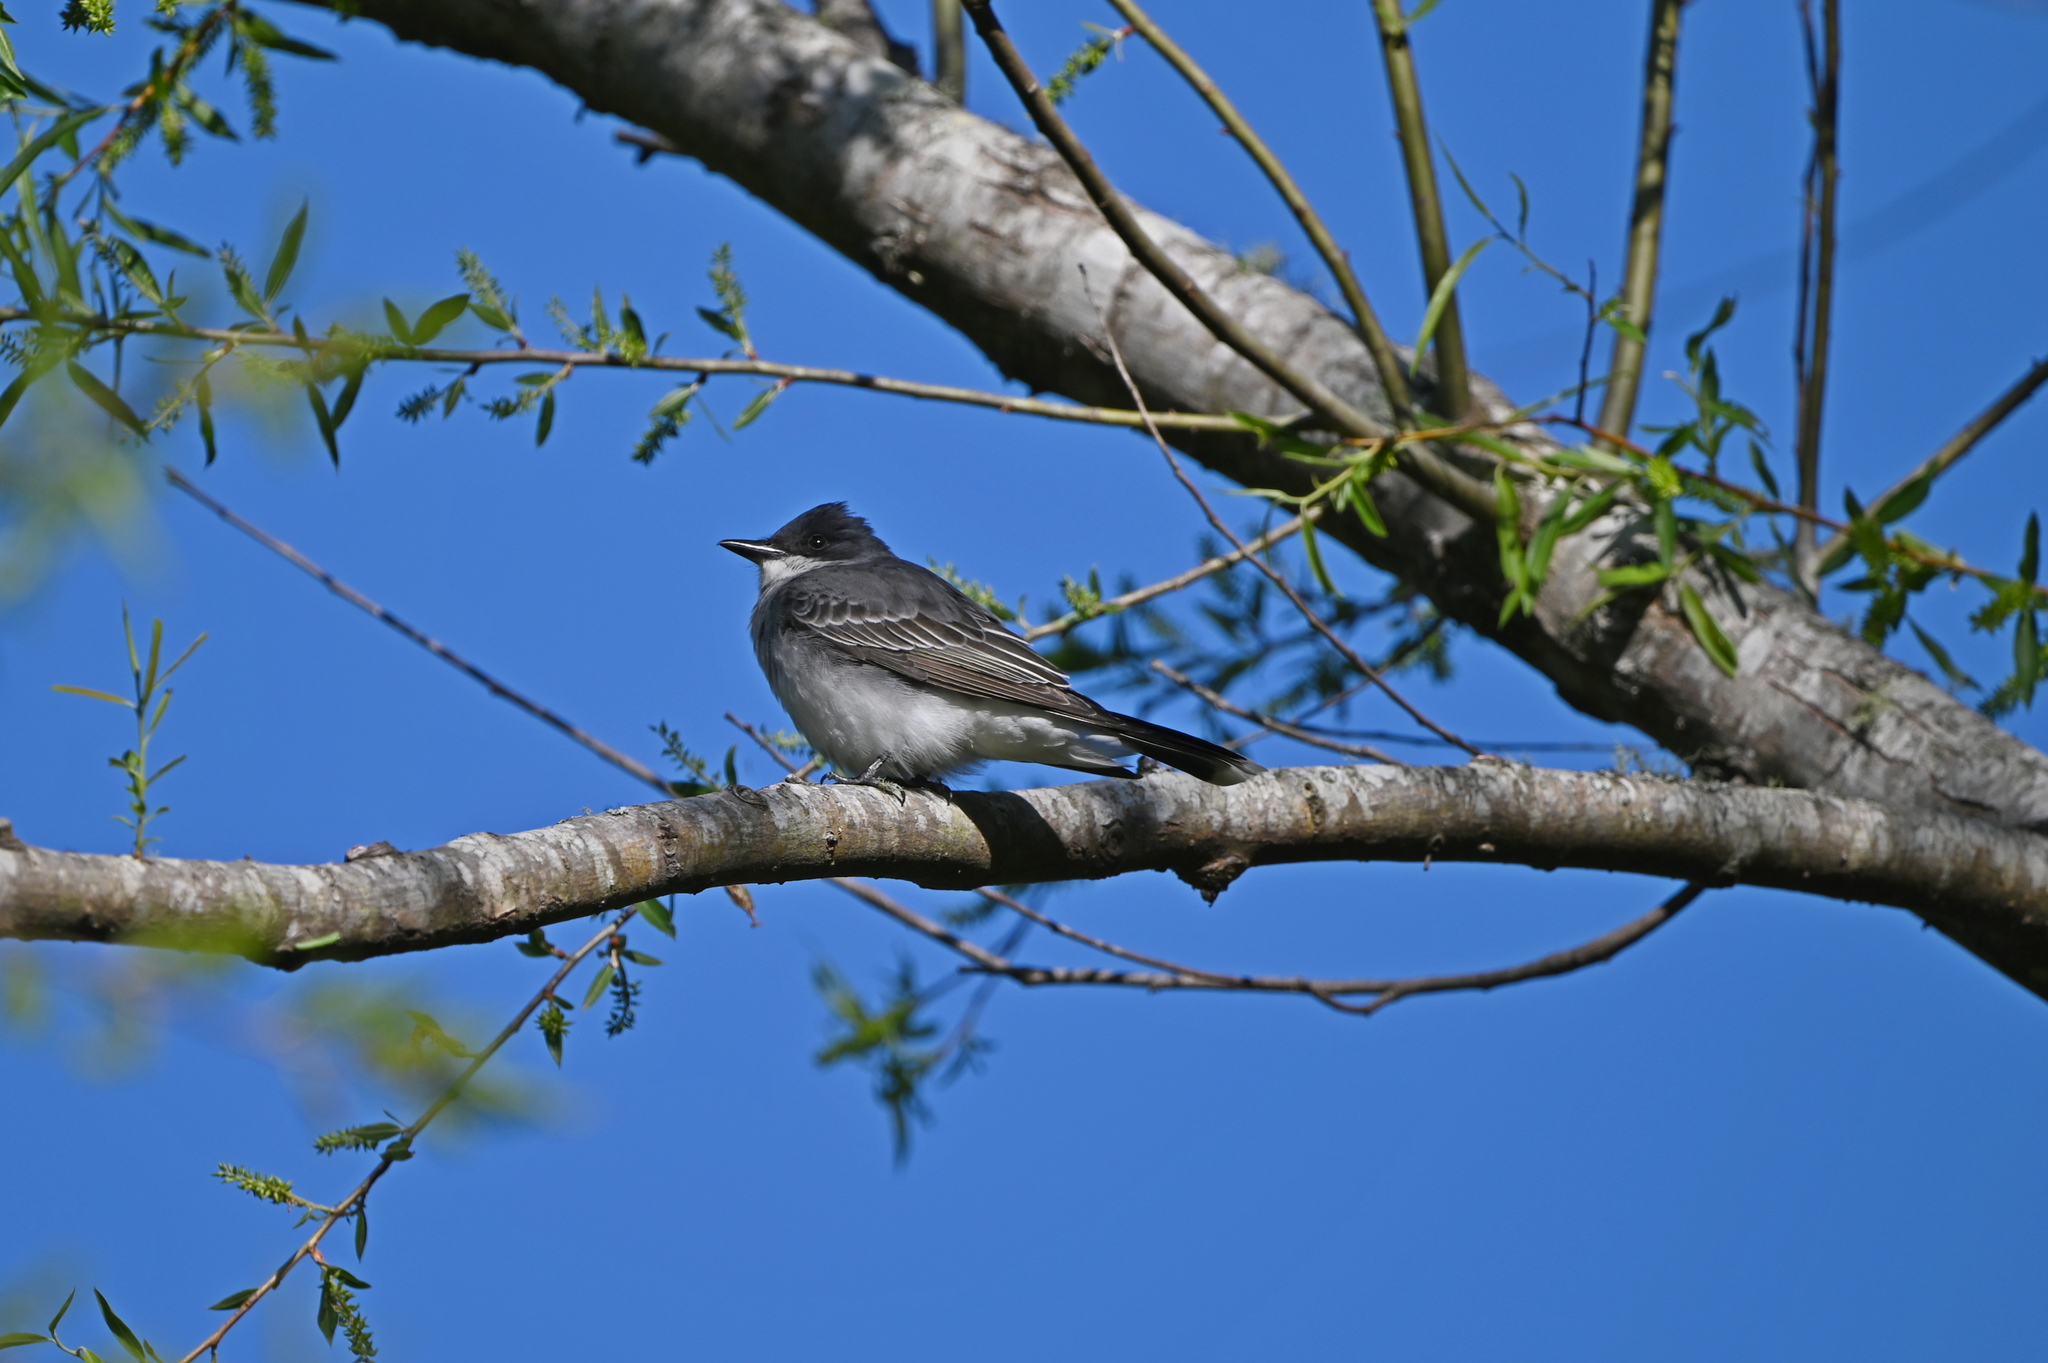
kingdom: Animalia
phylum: Chordata
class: Aves
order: Passeriformes
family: Tyrannidae
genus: Tyrannus
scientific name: Tyrannus tyrannus
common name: Eastern kingbird
